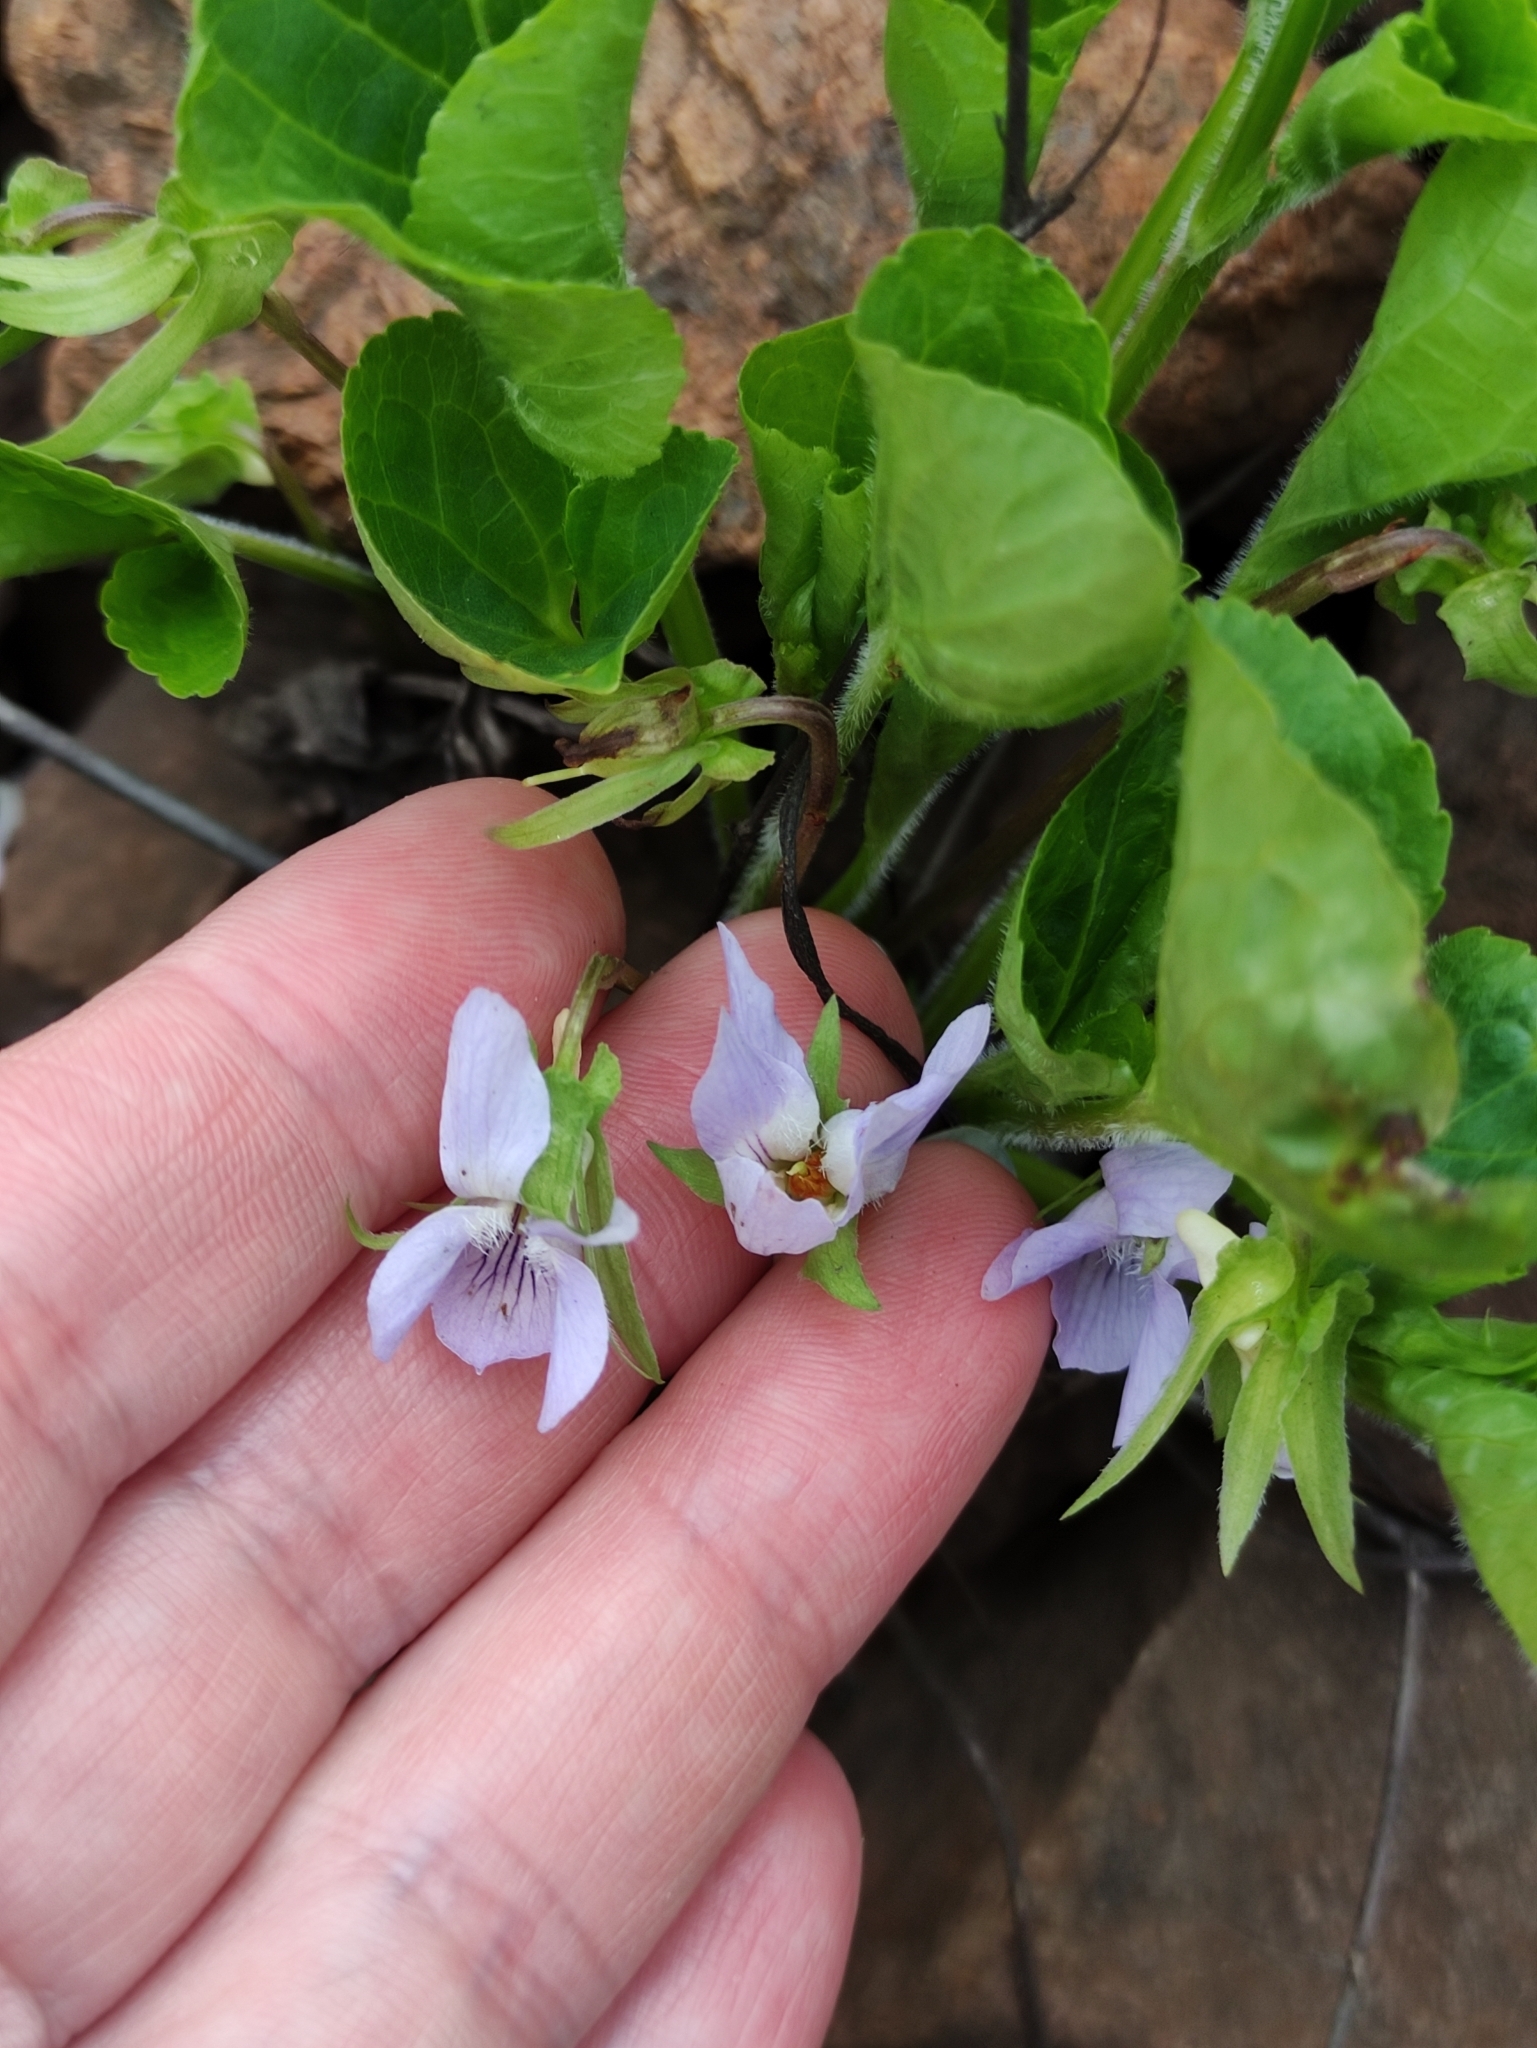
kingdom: Plantae
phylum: Tracheophyta
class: Magnoliopsida
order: Malpighiales
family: Violaceae
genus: Viola
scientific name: Viola mirabilis
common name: Wonder violet
